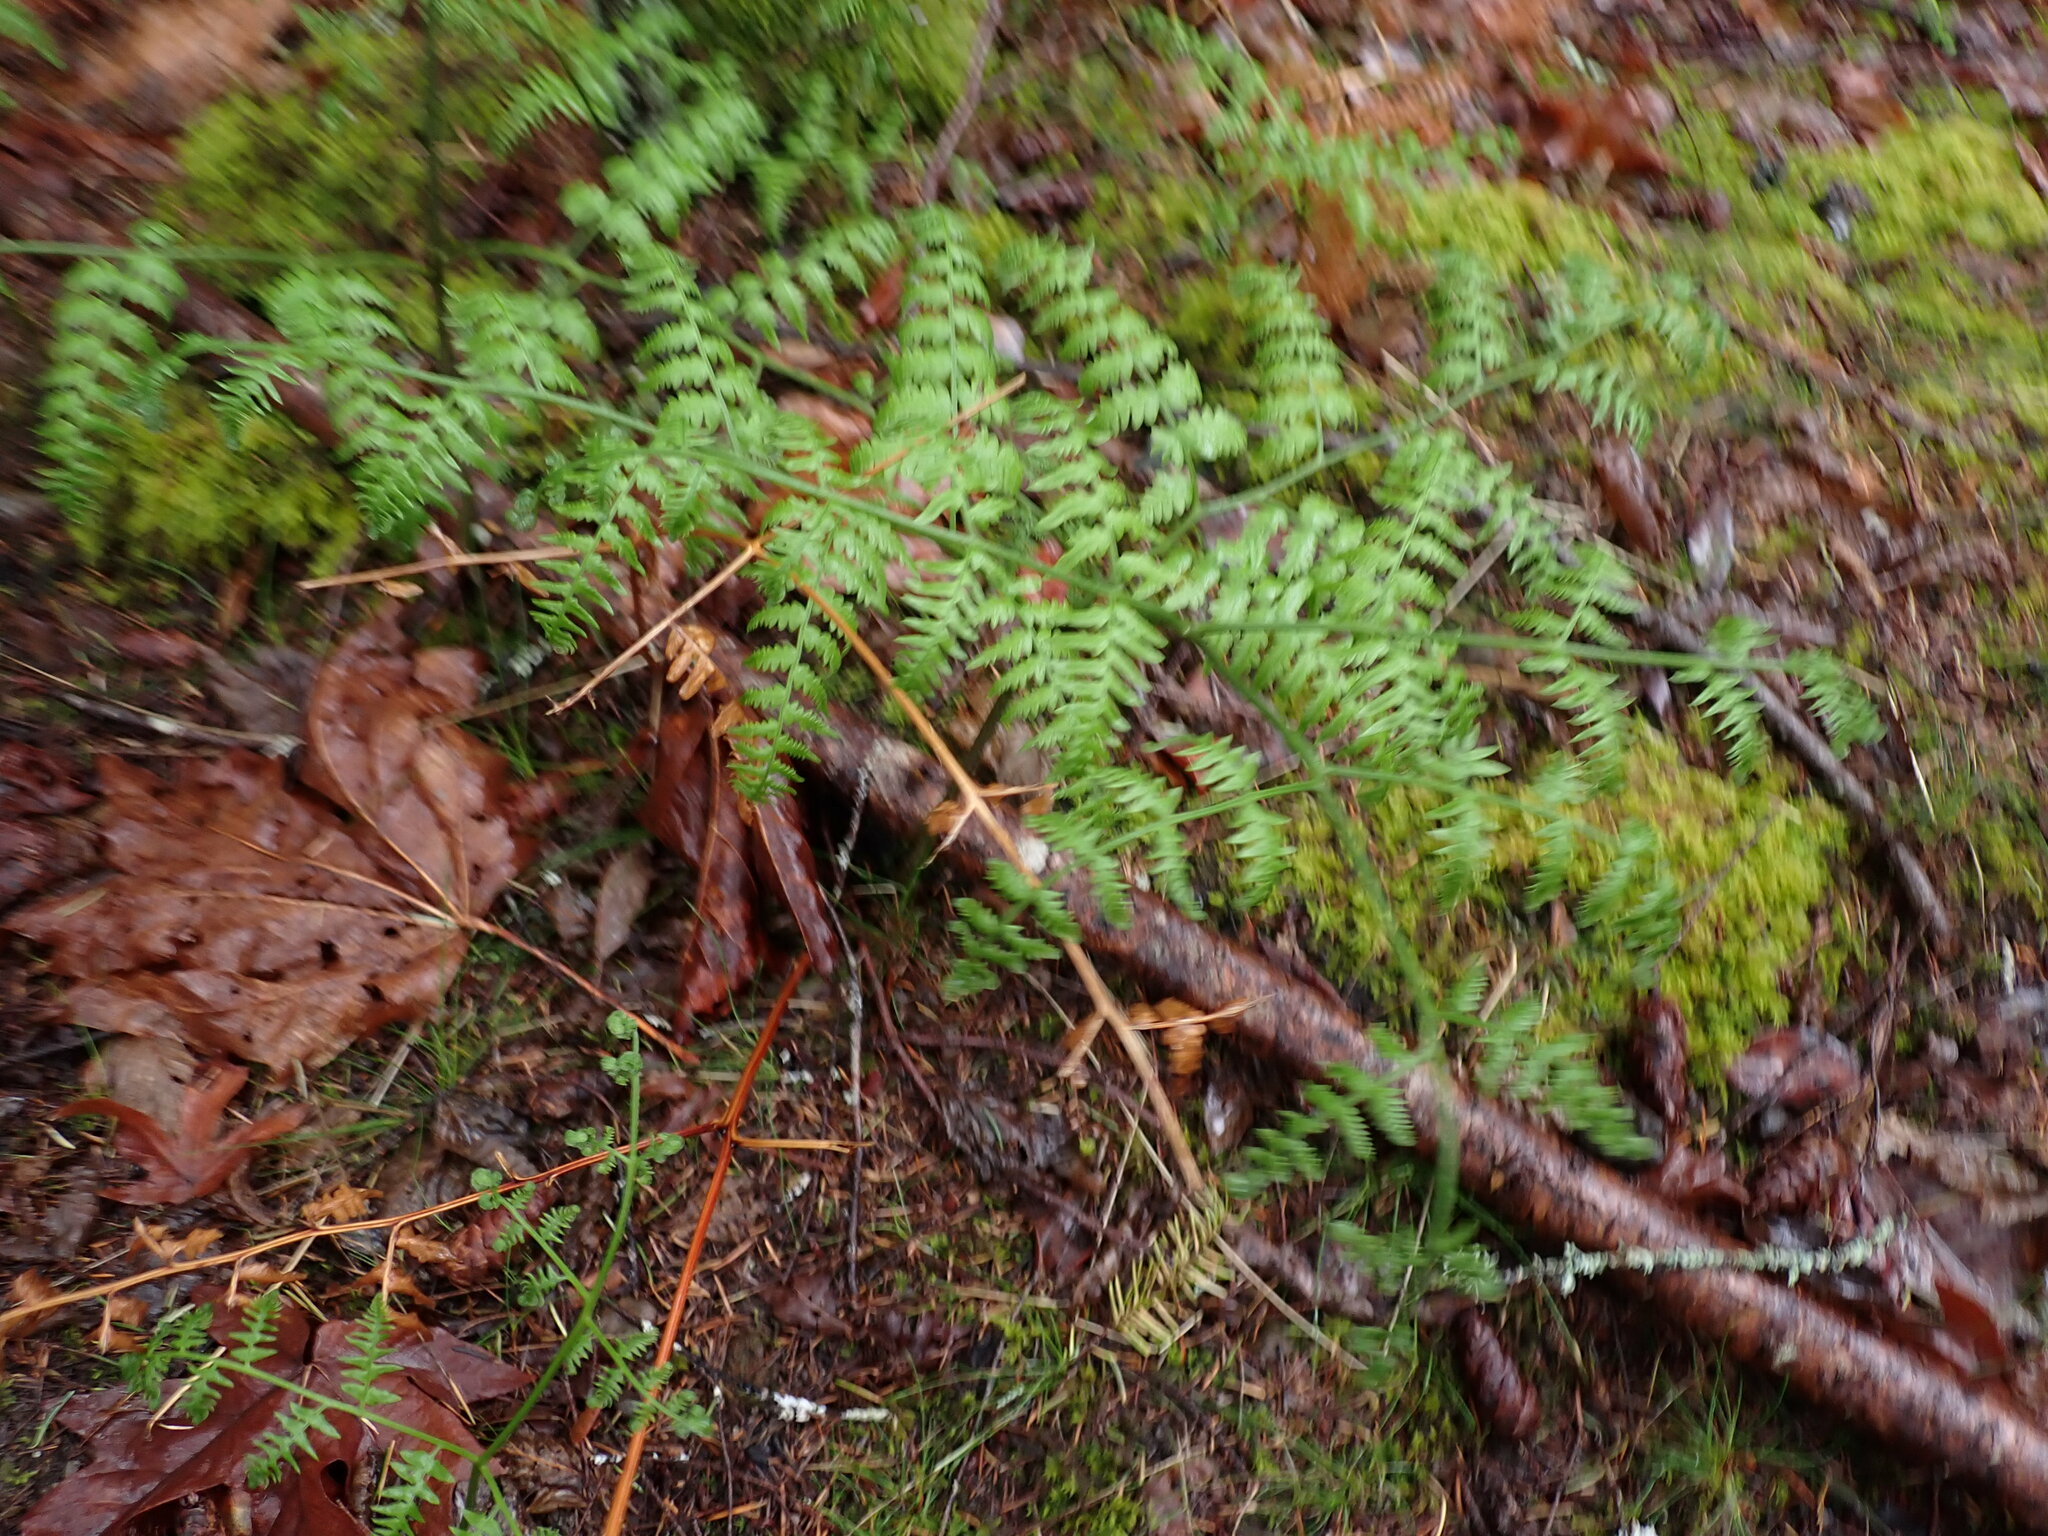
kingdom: Plantae
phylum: Tracheophyta
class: Polypodiopsida
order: Polypodiales
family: Dennstaedtiaceae
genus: Pteridium
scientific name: Pteridium aquilinum
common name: Bracken
